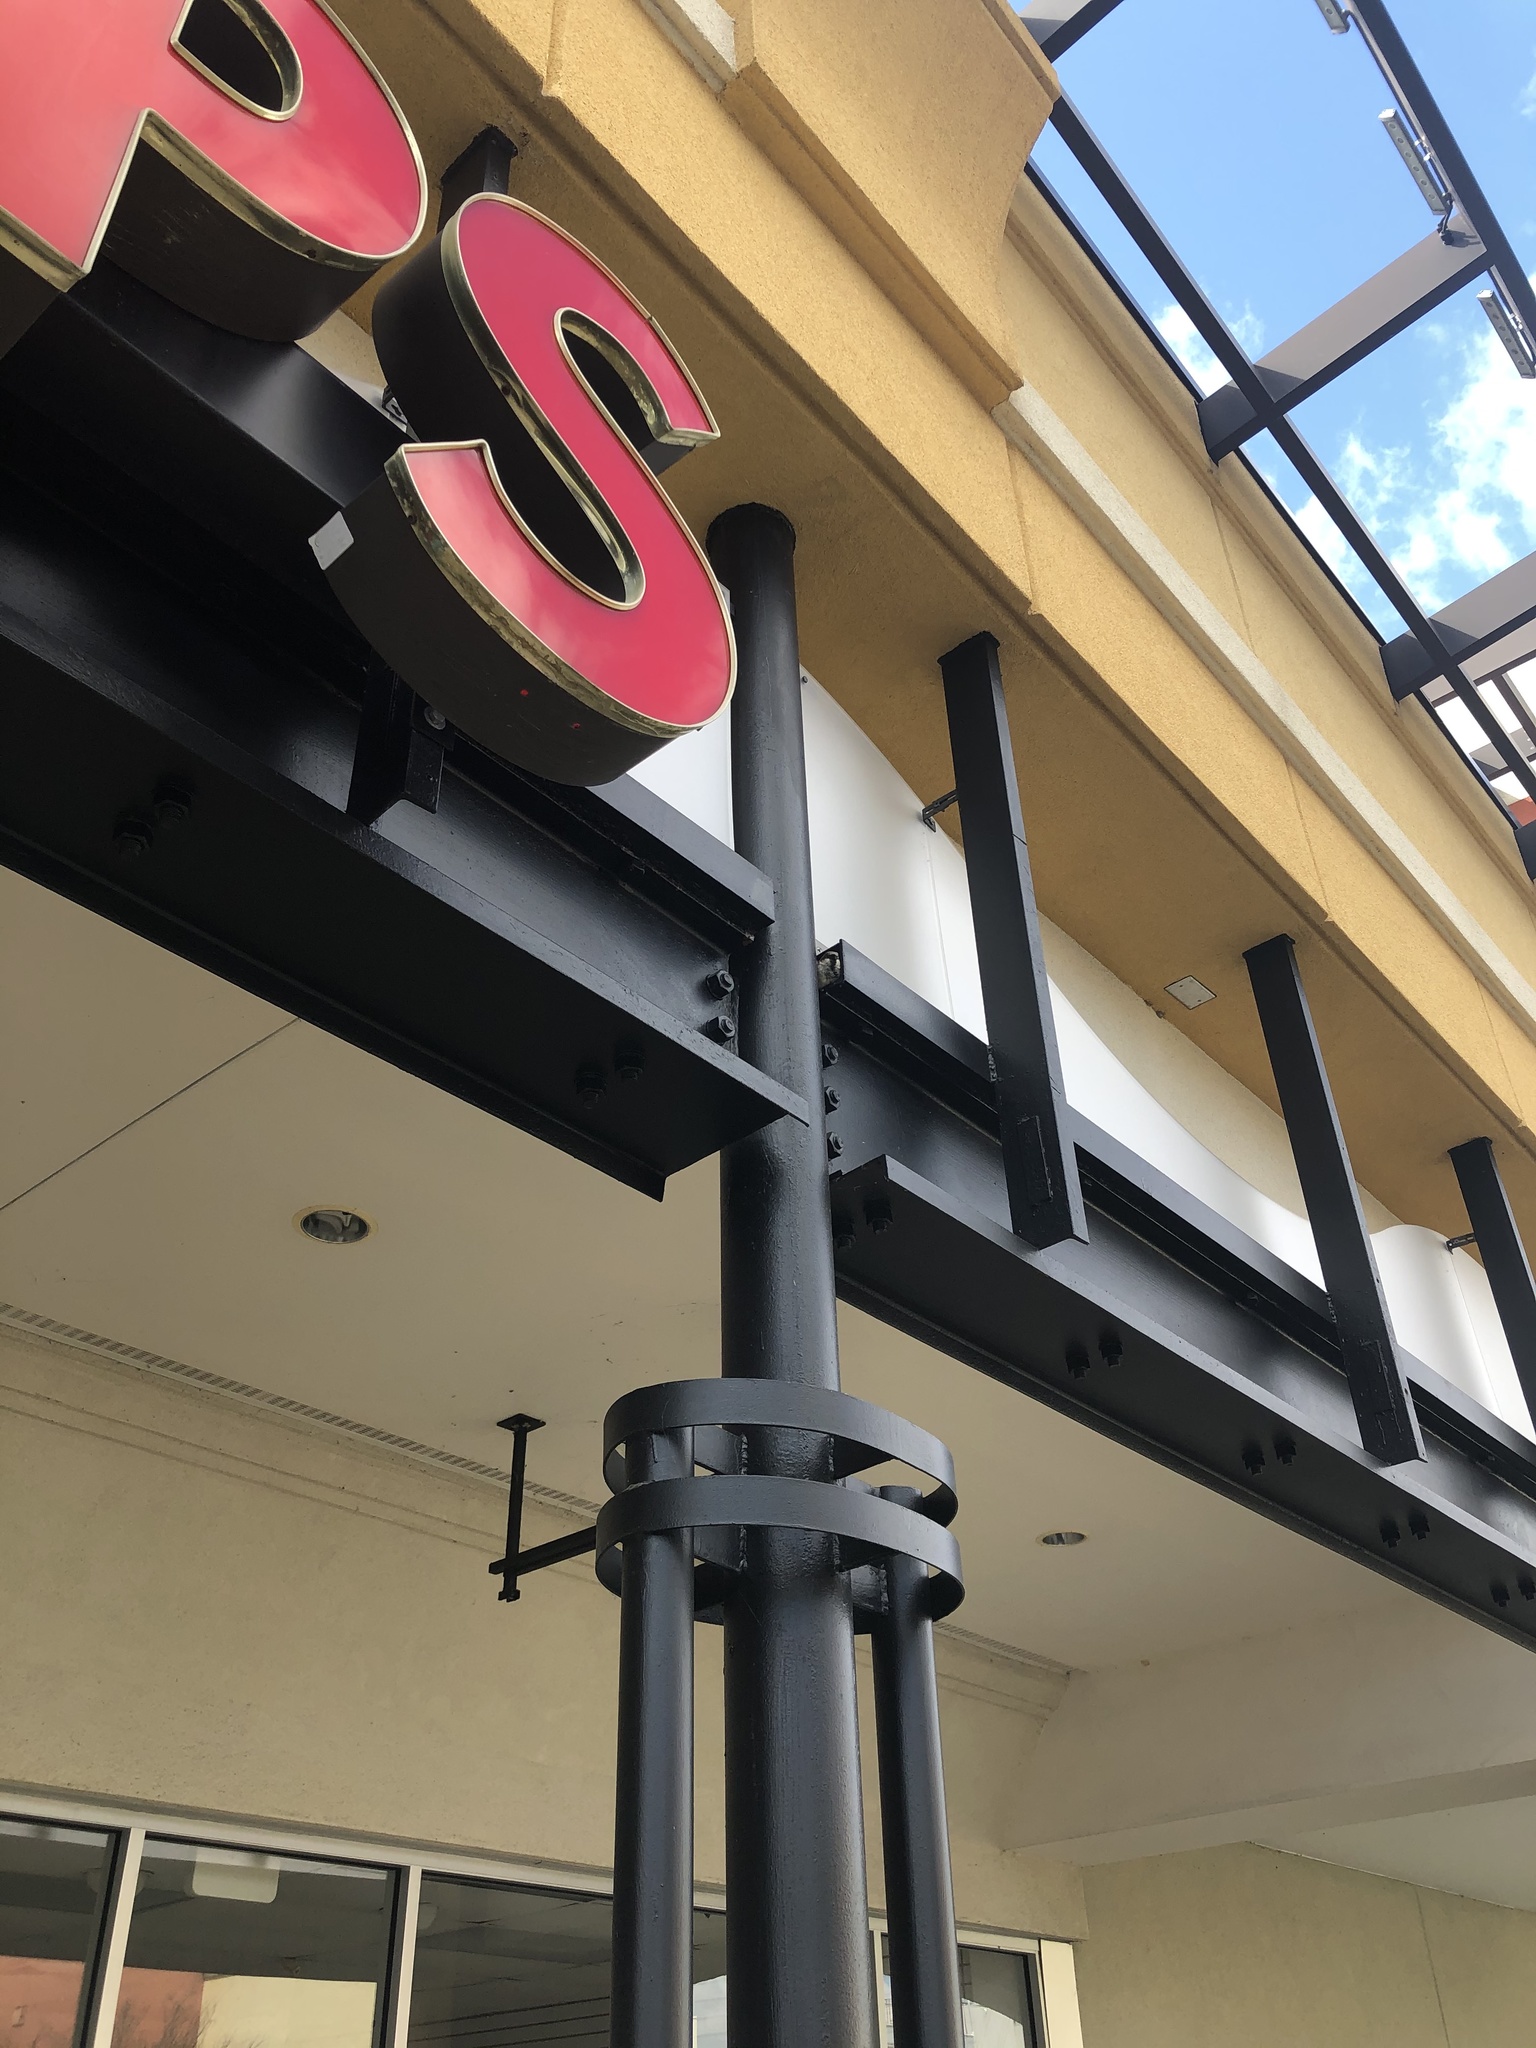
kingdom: Animalia
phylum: Chordata
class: Aves
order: Passeriformes
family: Passeridae
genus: Passer
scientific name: Passer domesticus
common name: House sparrow
